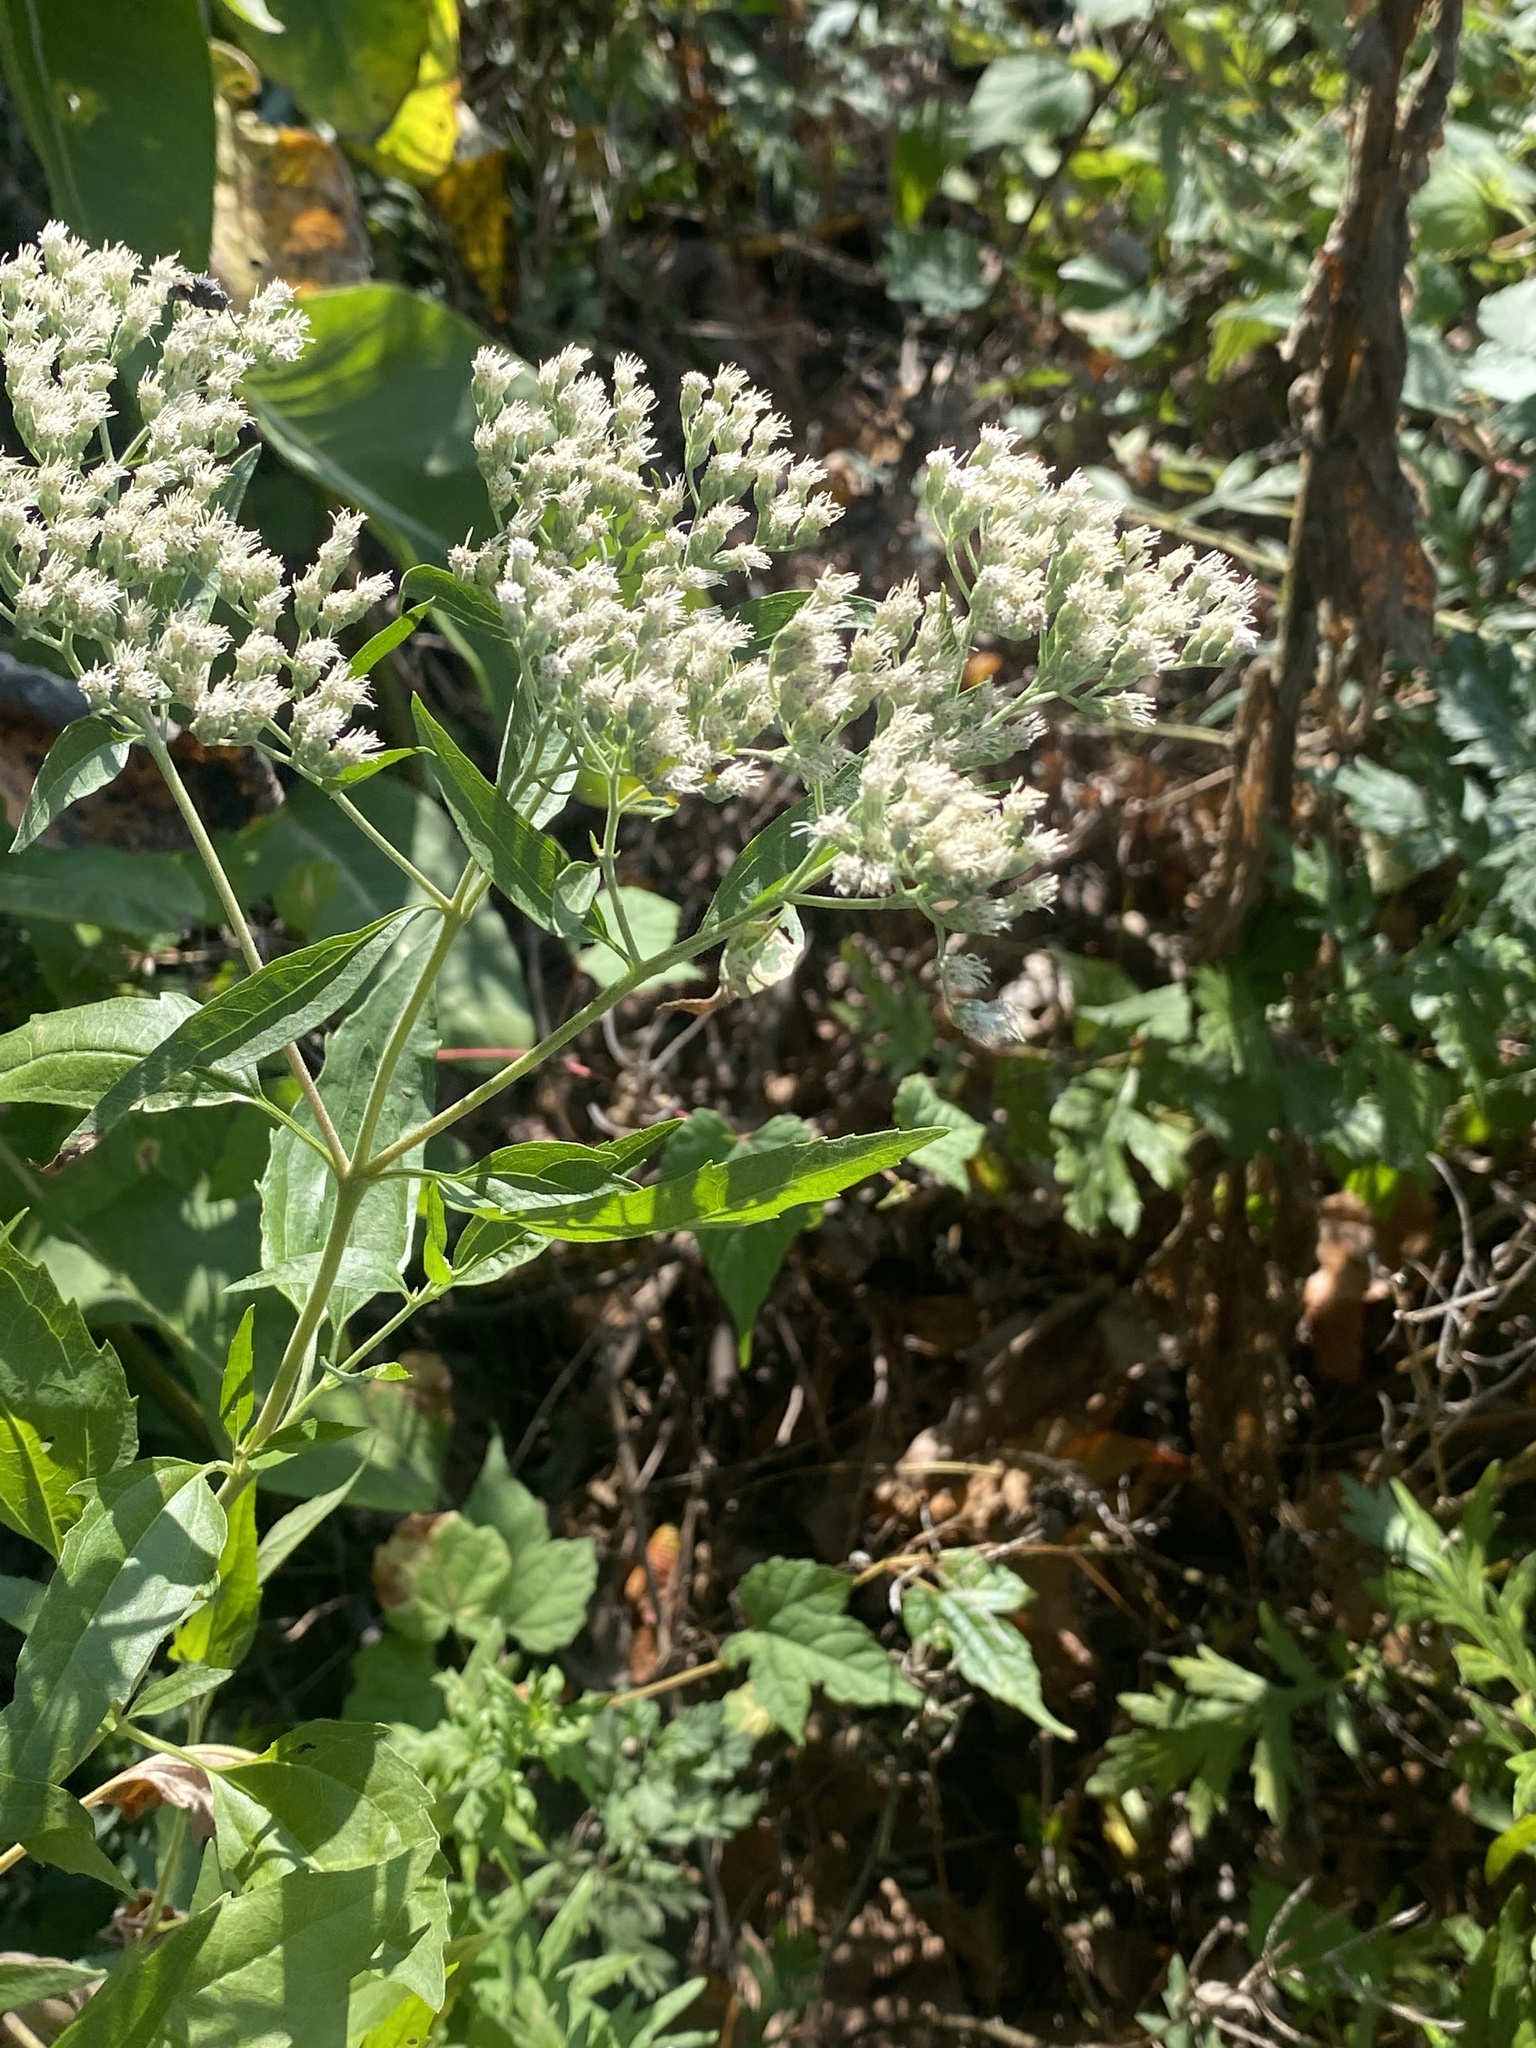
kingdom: Plantae
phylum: Tracheophyta
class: Magnoliopsida
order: Asterales
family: Asteraceae
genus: Eupatorium
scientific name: Eupatorium serotinum
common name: Late boneset
